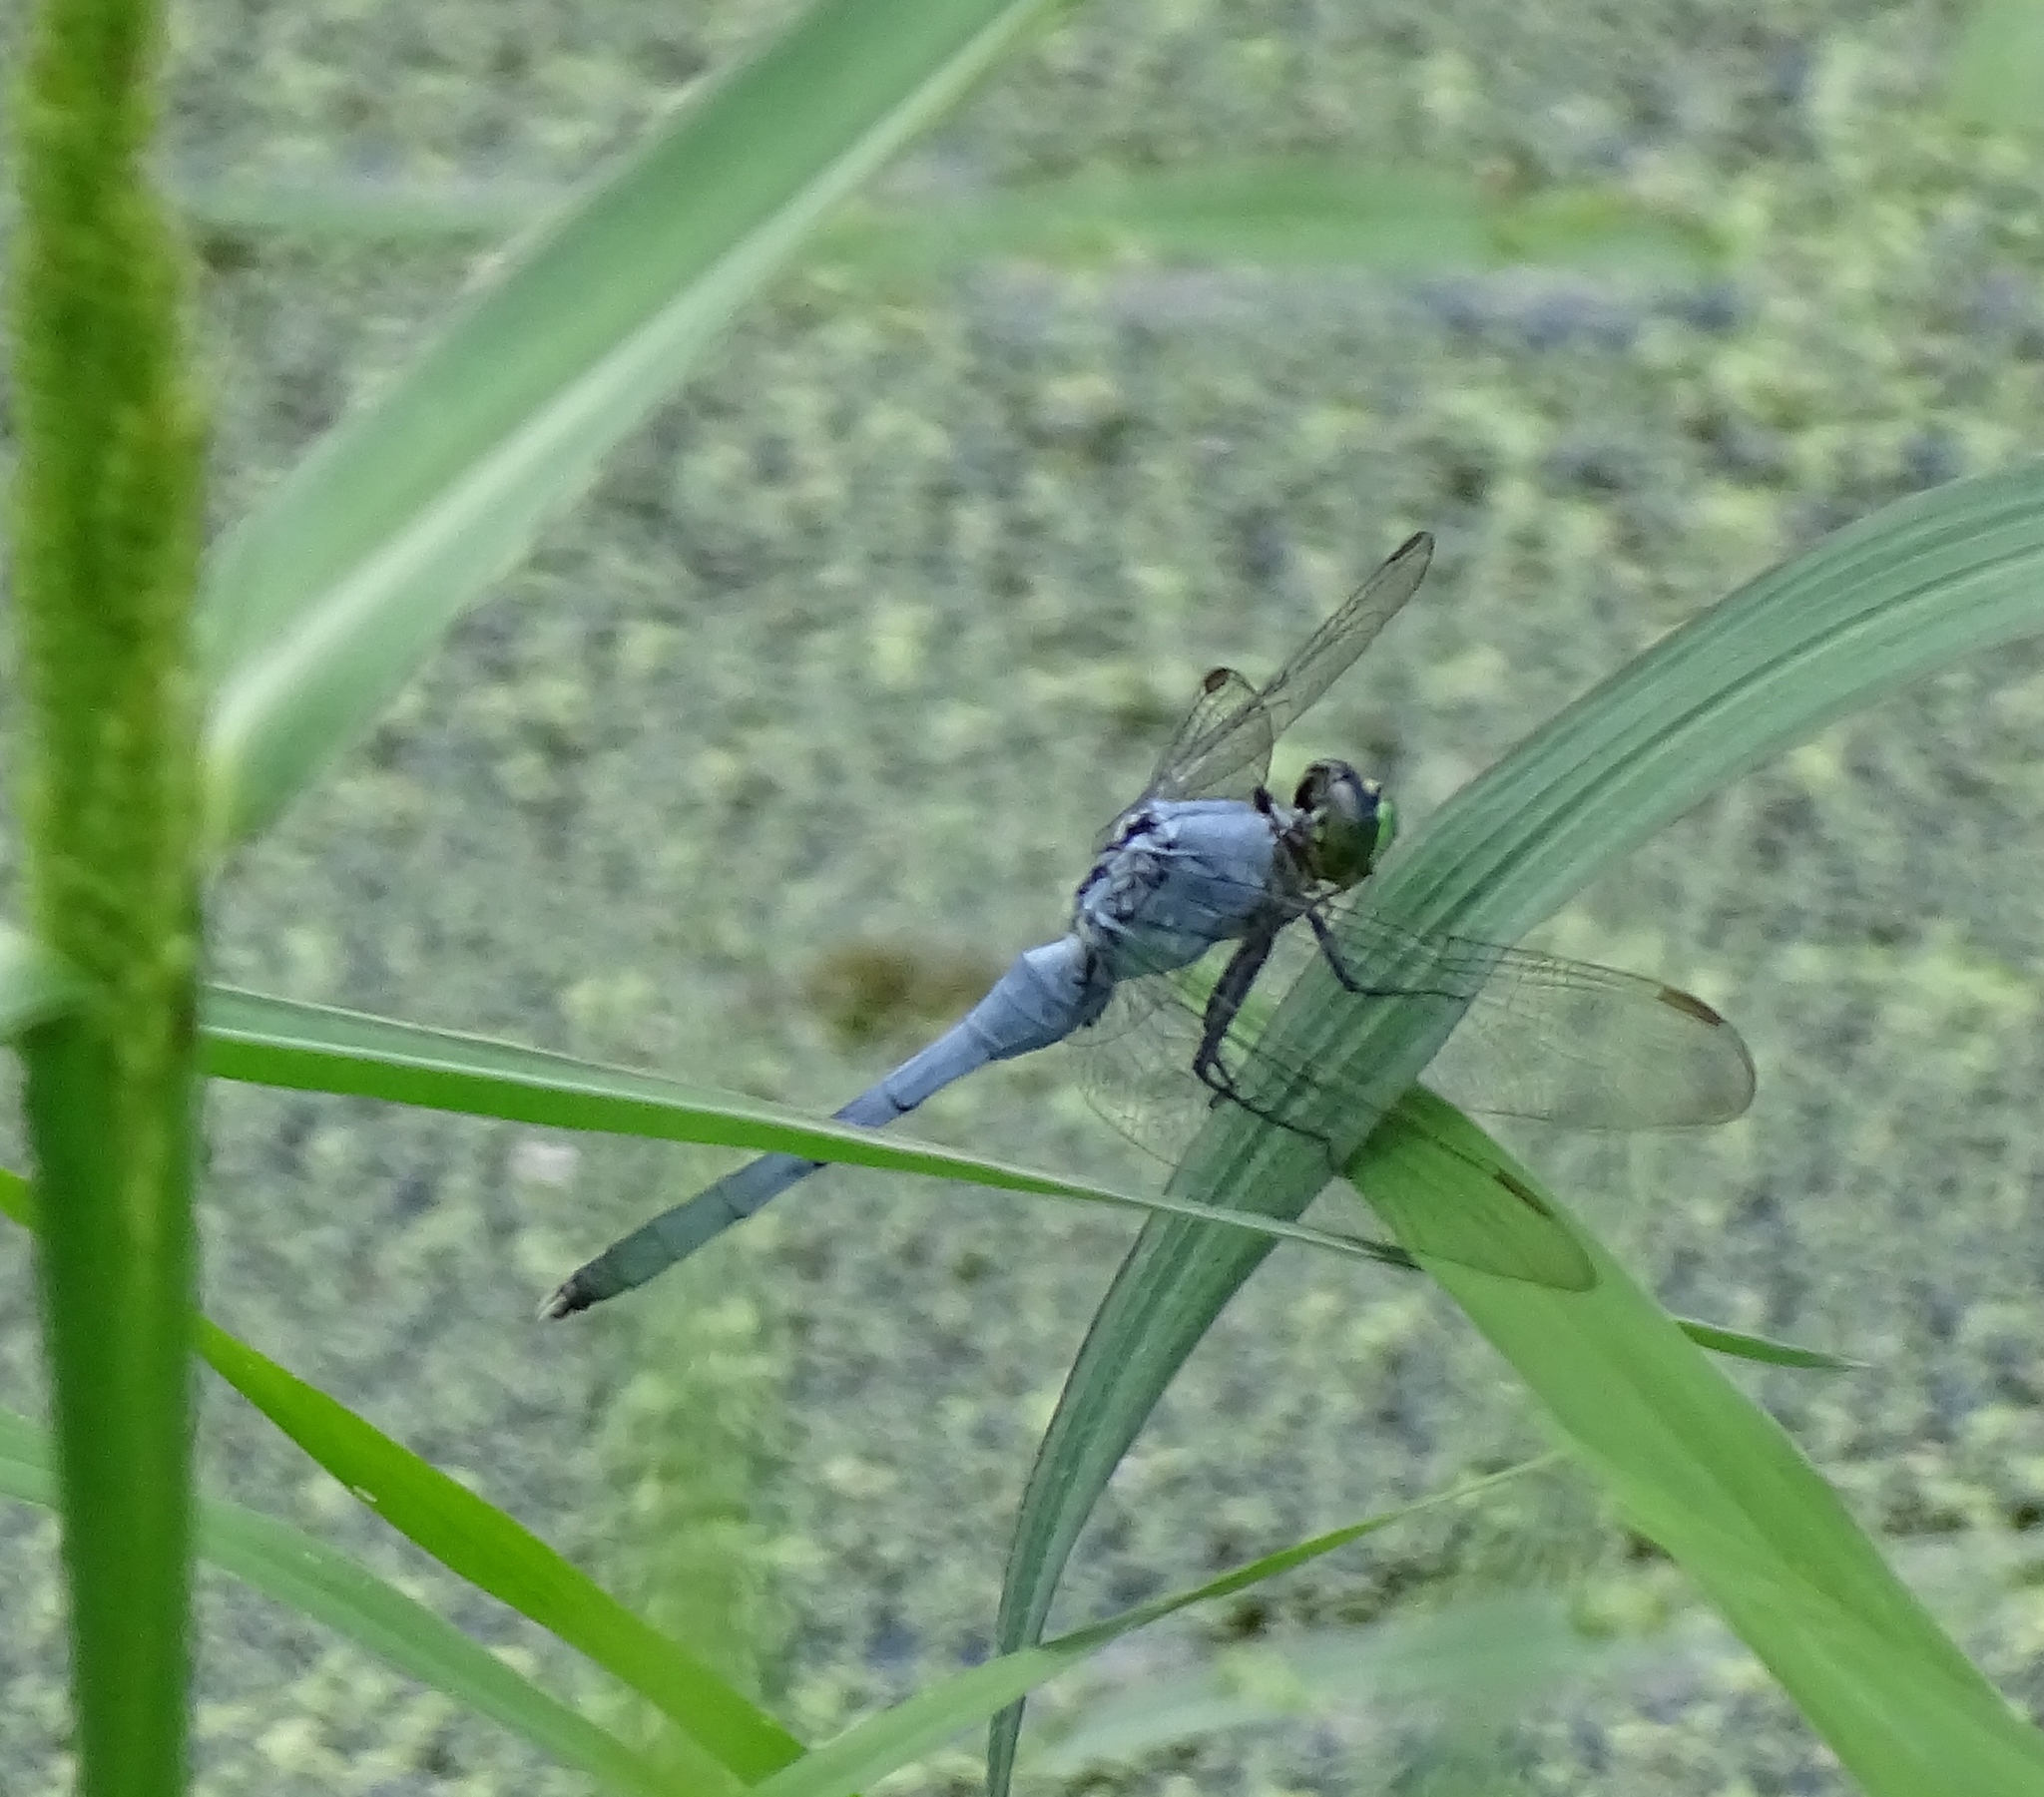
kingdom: Animalia
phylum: Arthropoda
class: Insecta
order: Odonata
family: Libellulidae
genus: Erythemis
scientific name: Erythemis simplicicollis
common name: Eastern pondhawk
